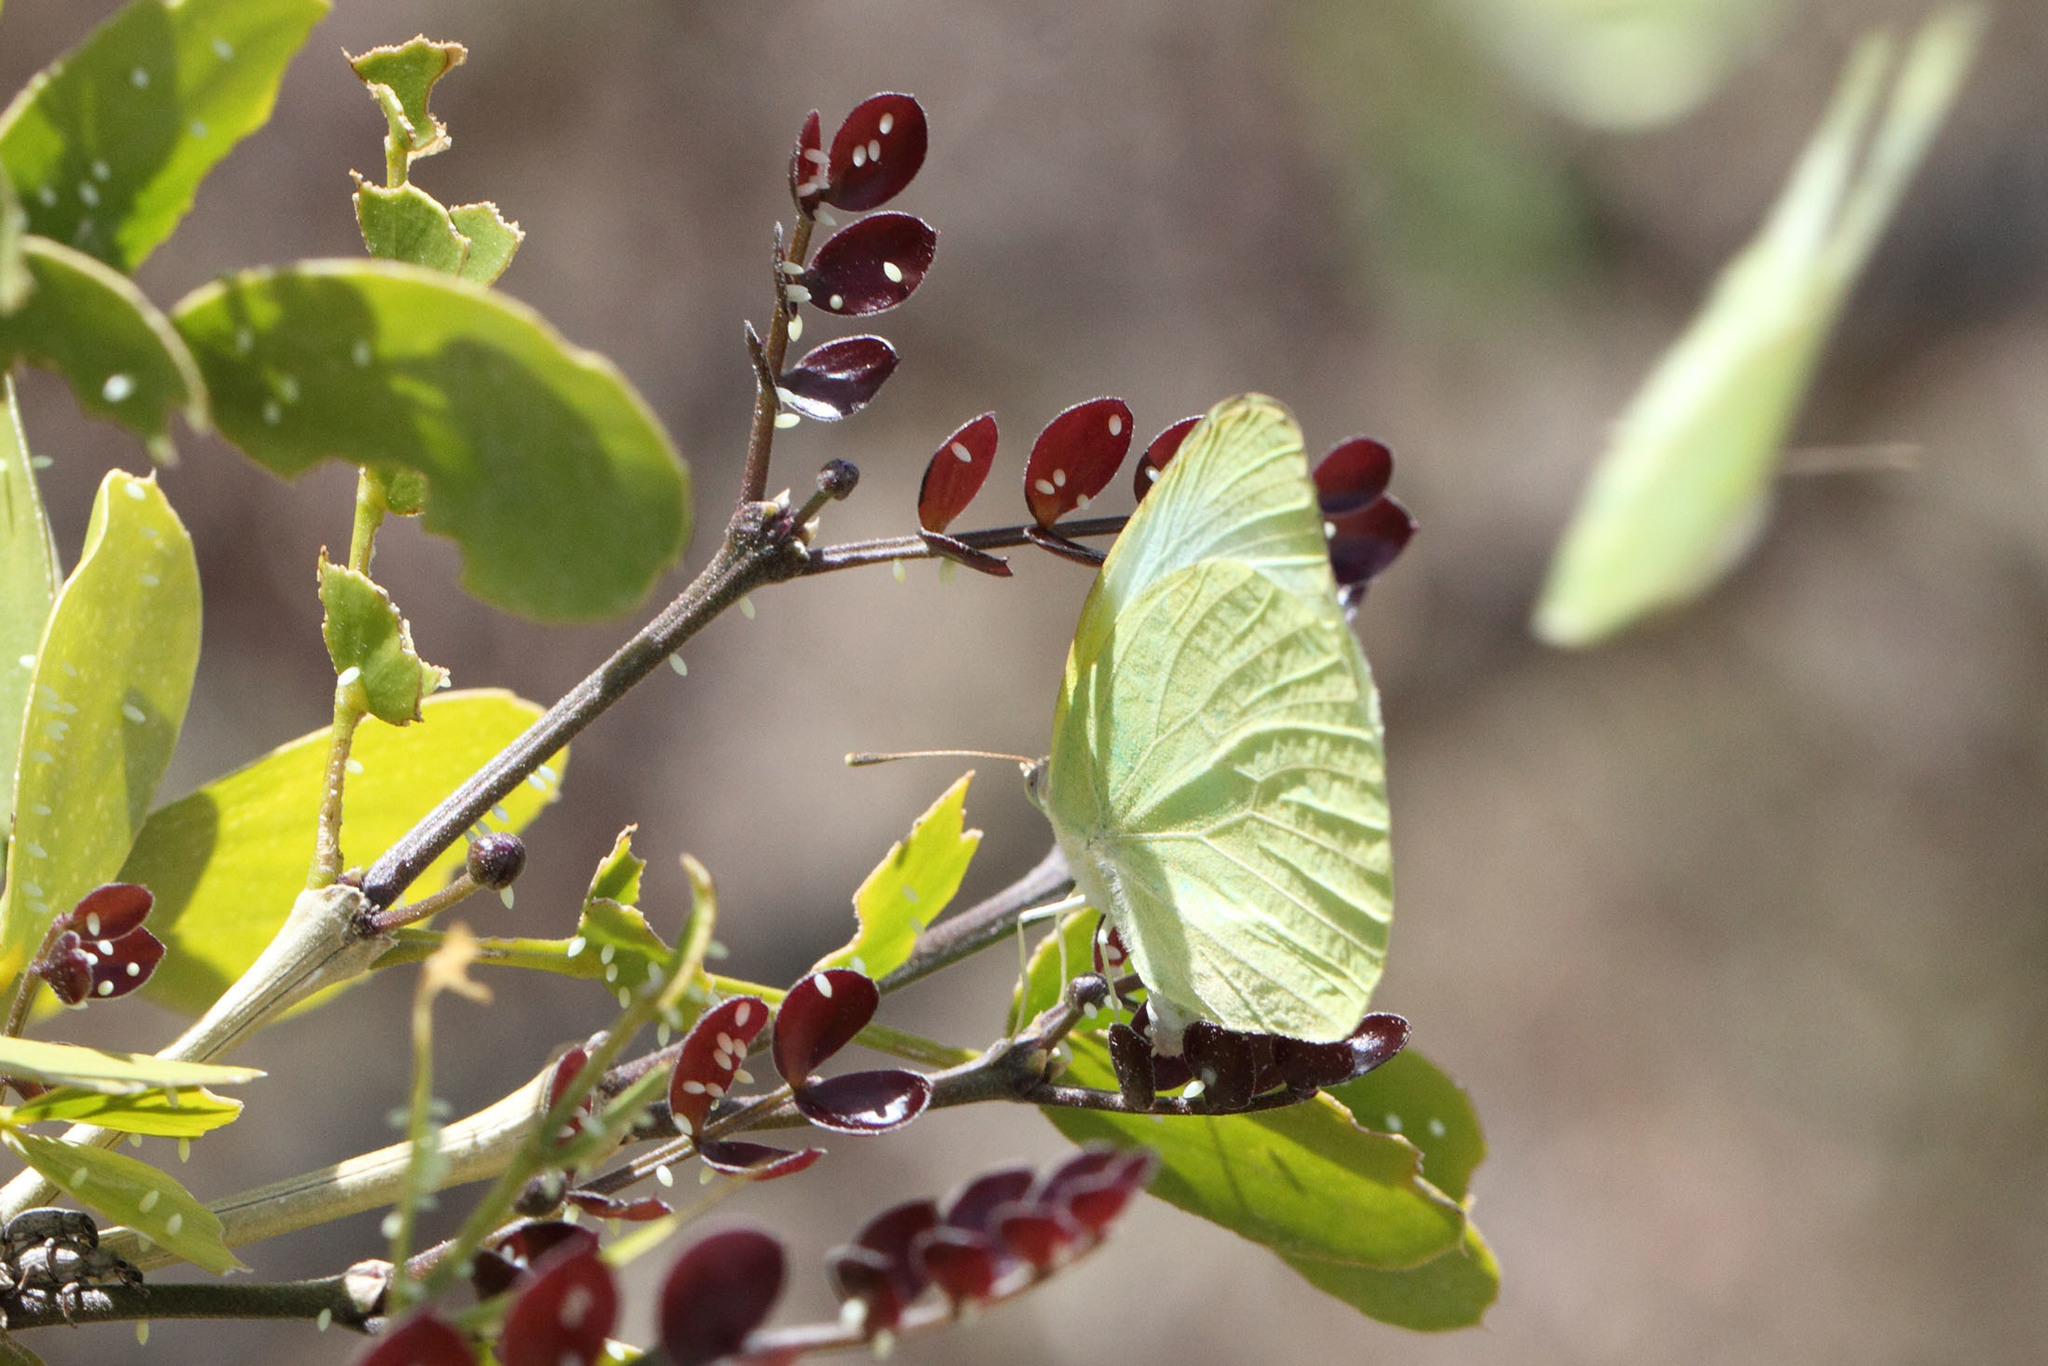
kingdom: Animalia
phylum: Arthropoda
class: Insecta
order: Lepidoptera
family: Pieridae
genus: Kricogonia
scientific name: Kricogonia lyside
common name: Guayacan sulphur,
